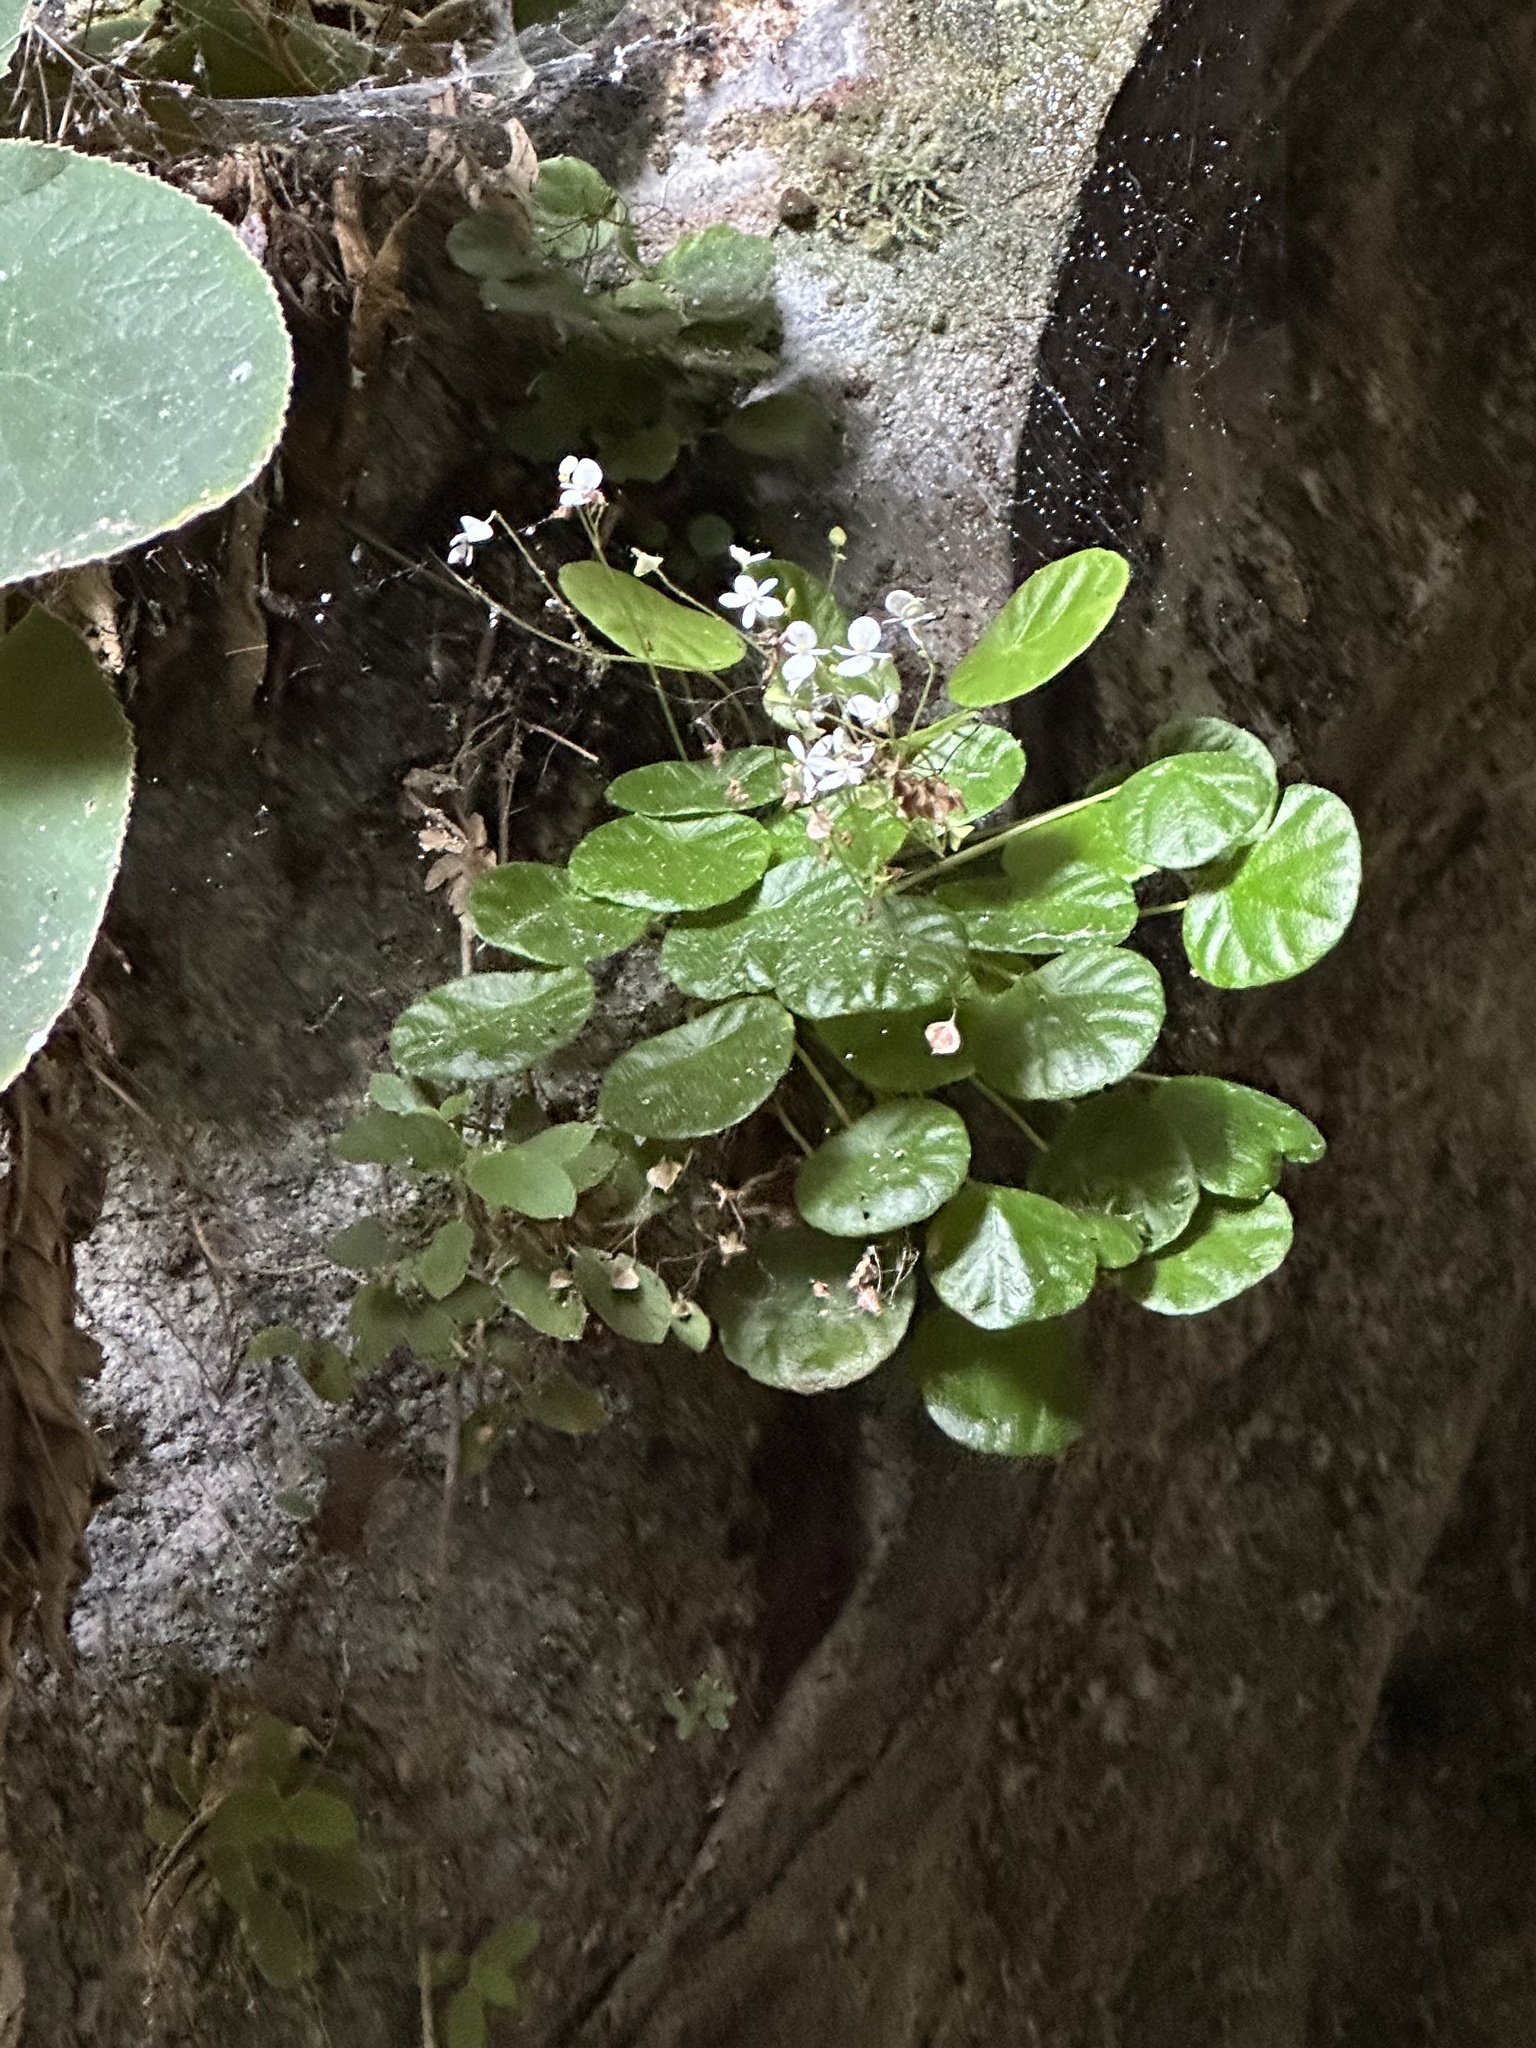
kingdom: Plantae
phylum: Tracheophyta
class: Magnoliopsida
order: Cucurbitales
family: Begoniaceae
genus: Begonia
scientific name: Begonia speluncae
